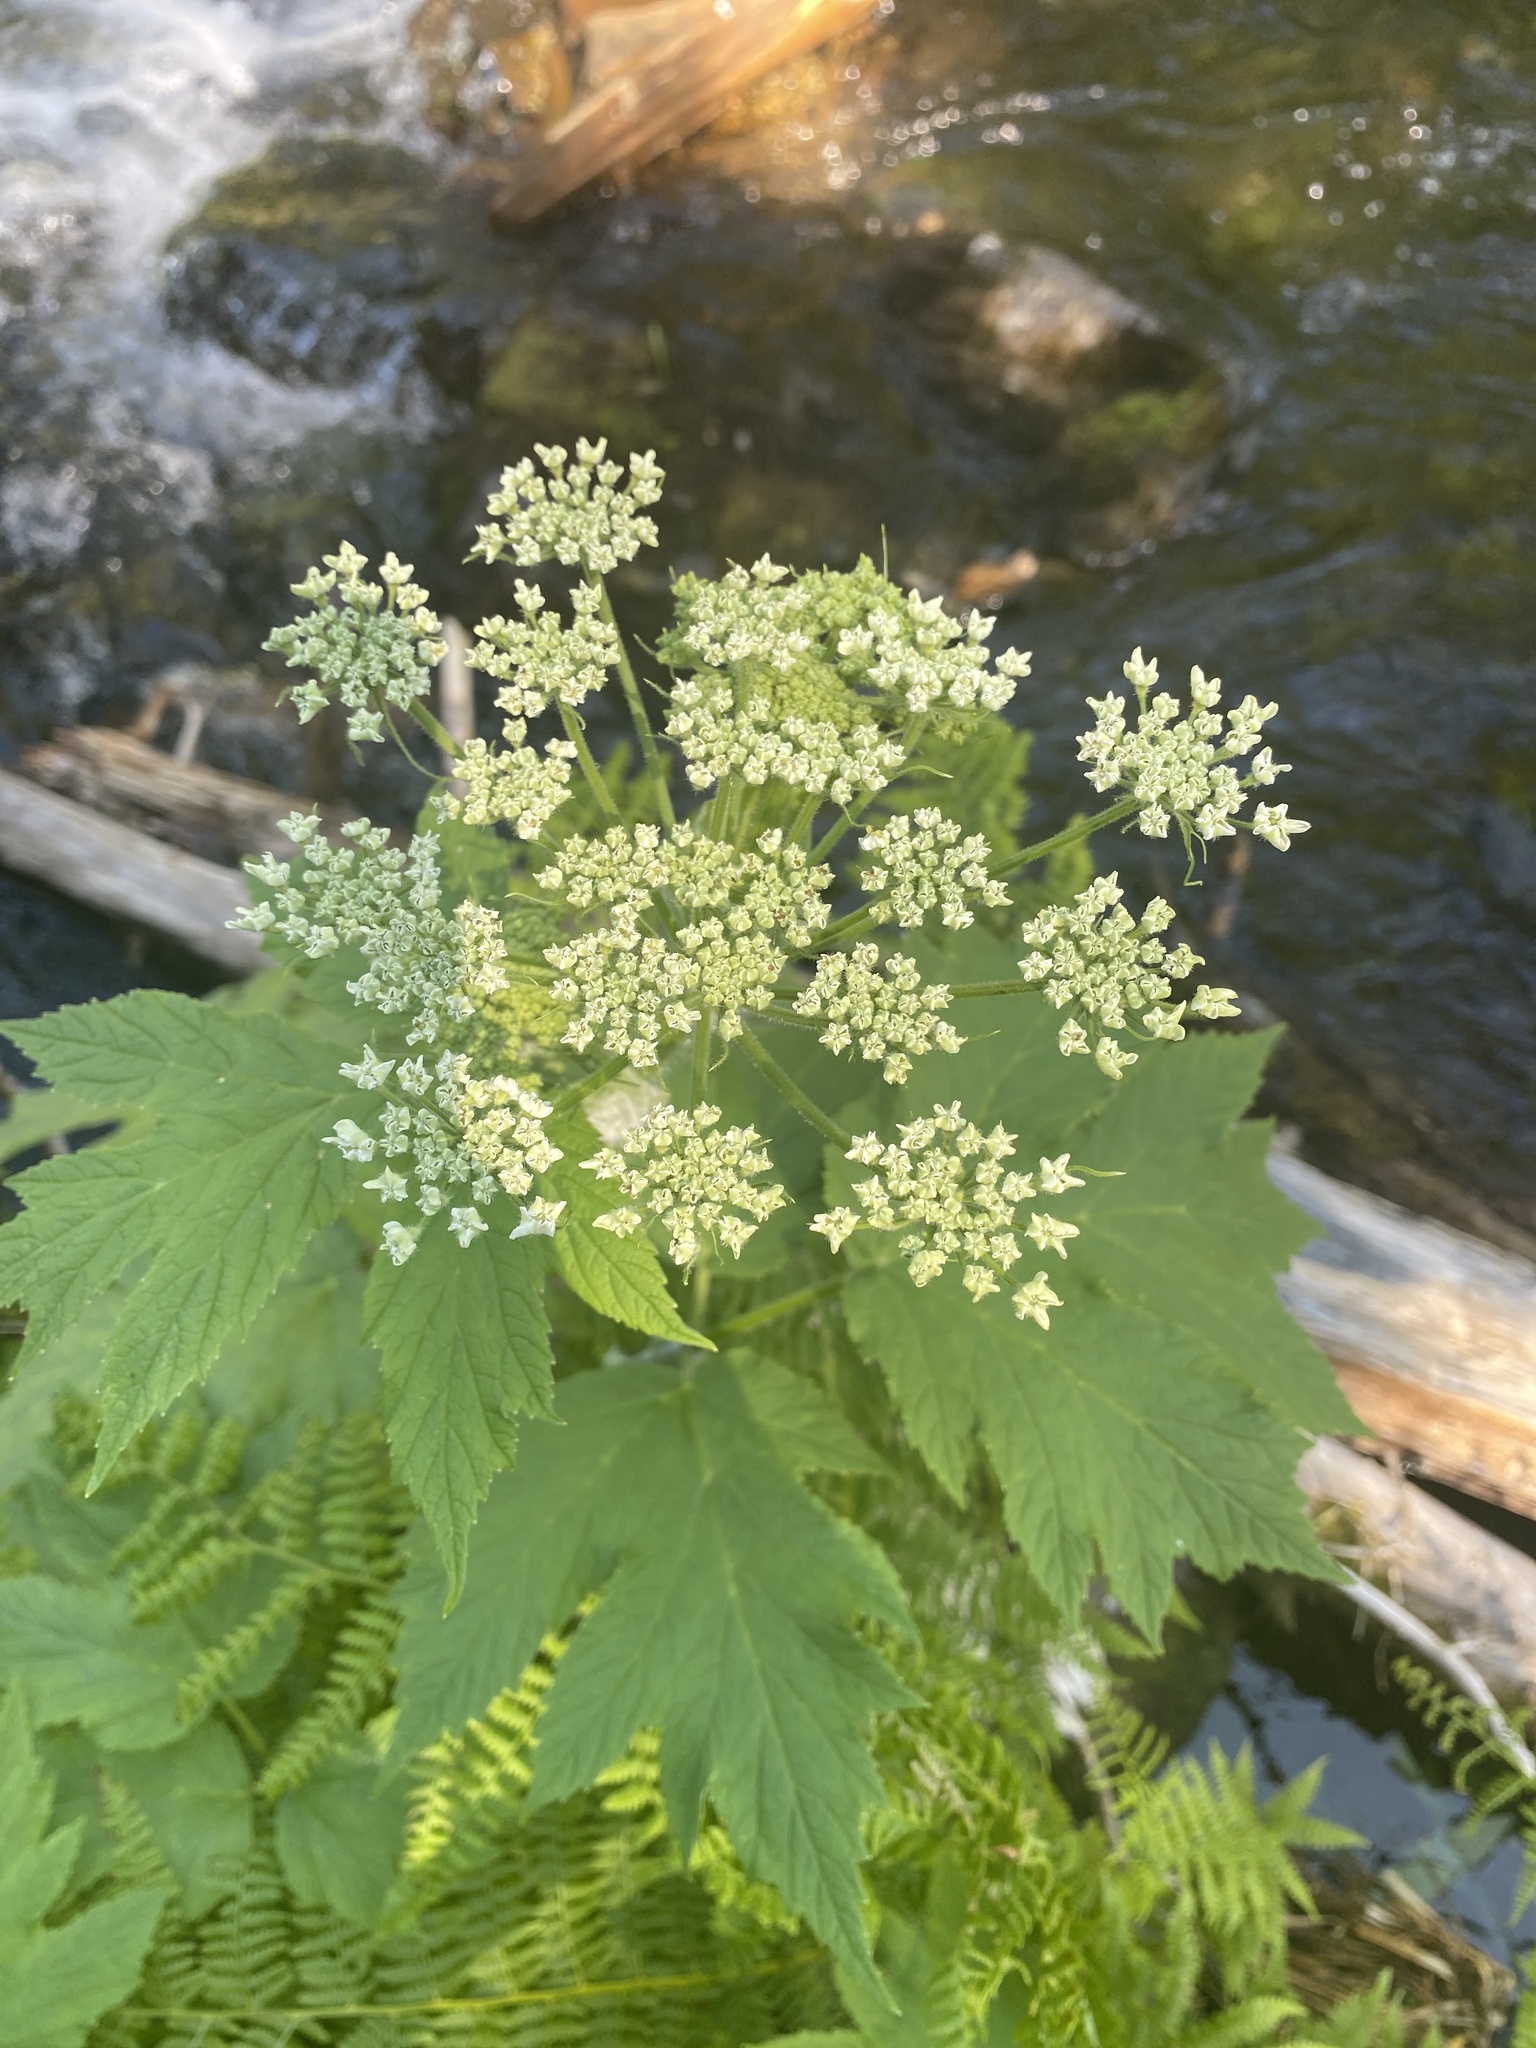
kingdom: Plantae
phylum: Tracheophyta
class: Magnoliopsida
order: Apiales
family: Apiaceae
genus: Heracleum
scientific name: Heracleum maximum
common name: American cow parsnip
